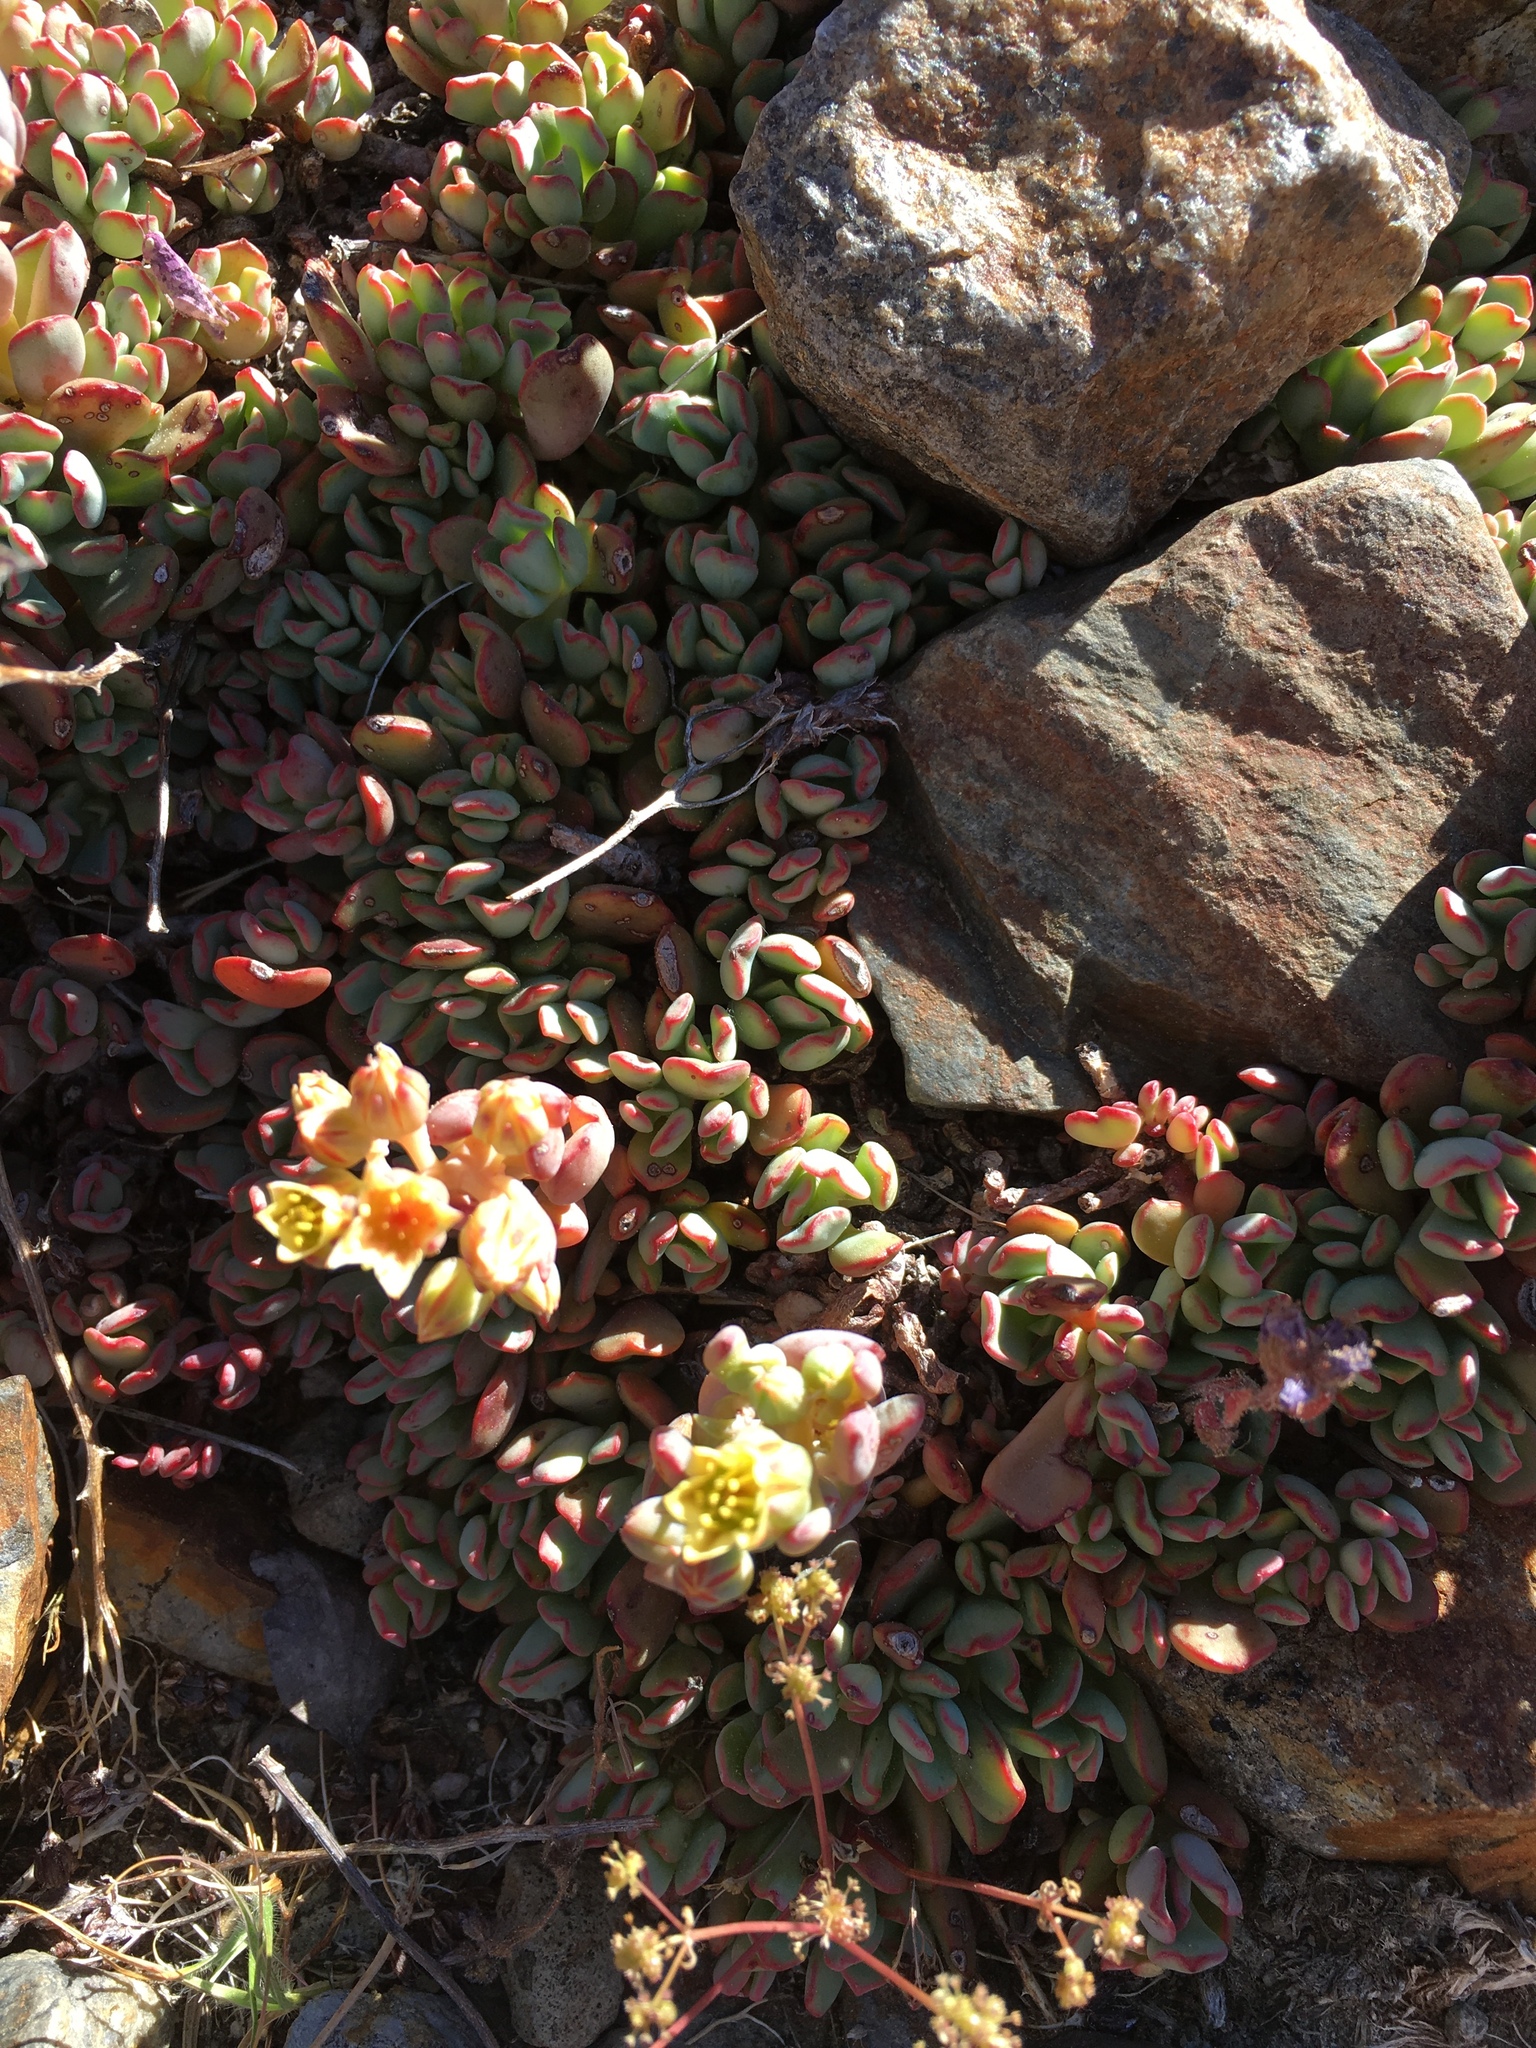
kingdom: Plantae
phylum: Tracheophyta
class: Magnoliopsida
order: Saxifragales
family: Crassulaceae
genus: Sedum
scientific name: Sedum obtusatum
